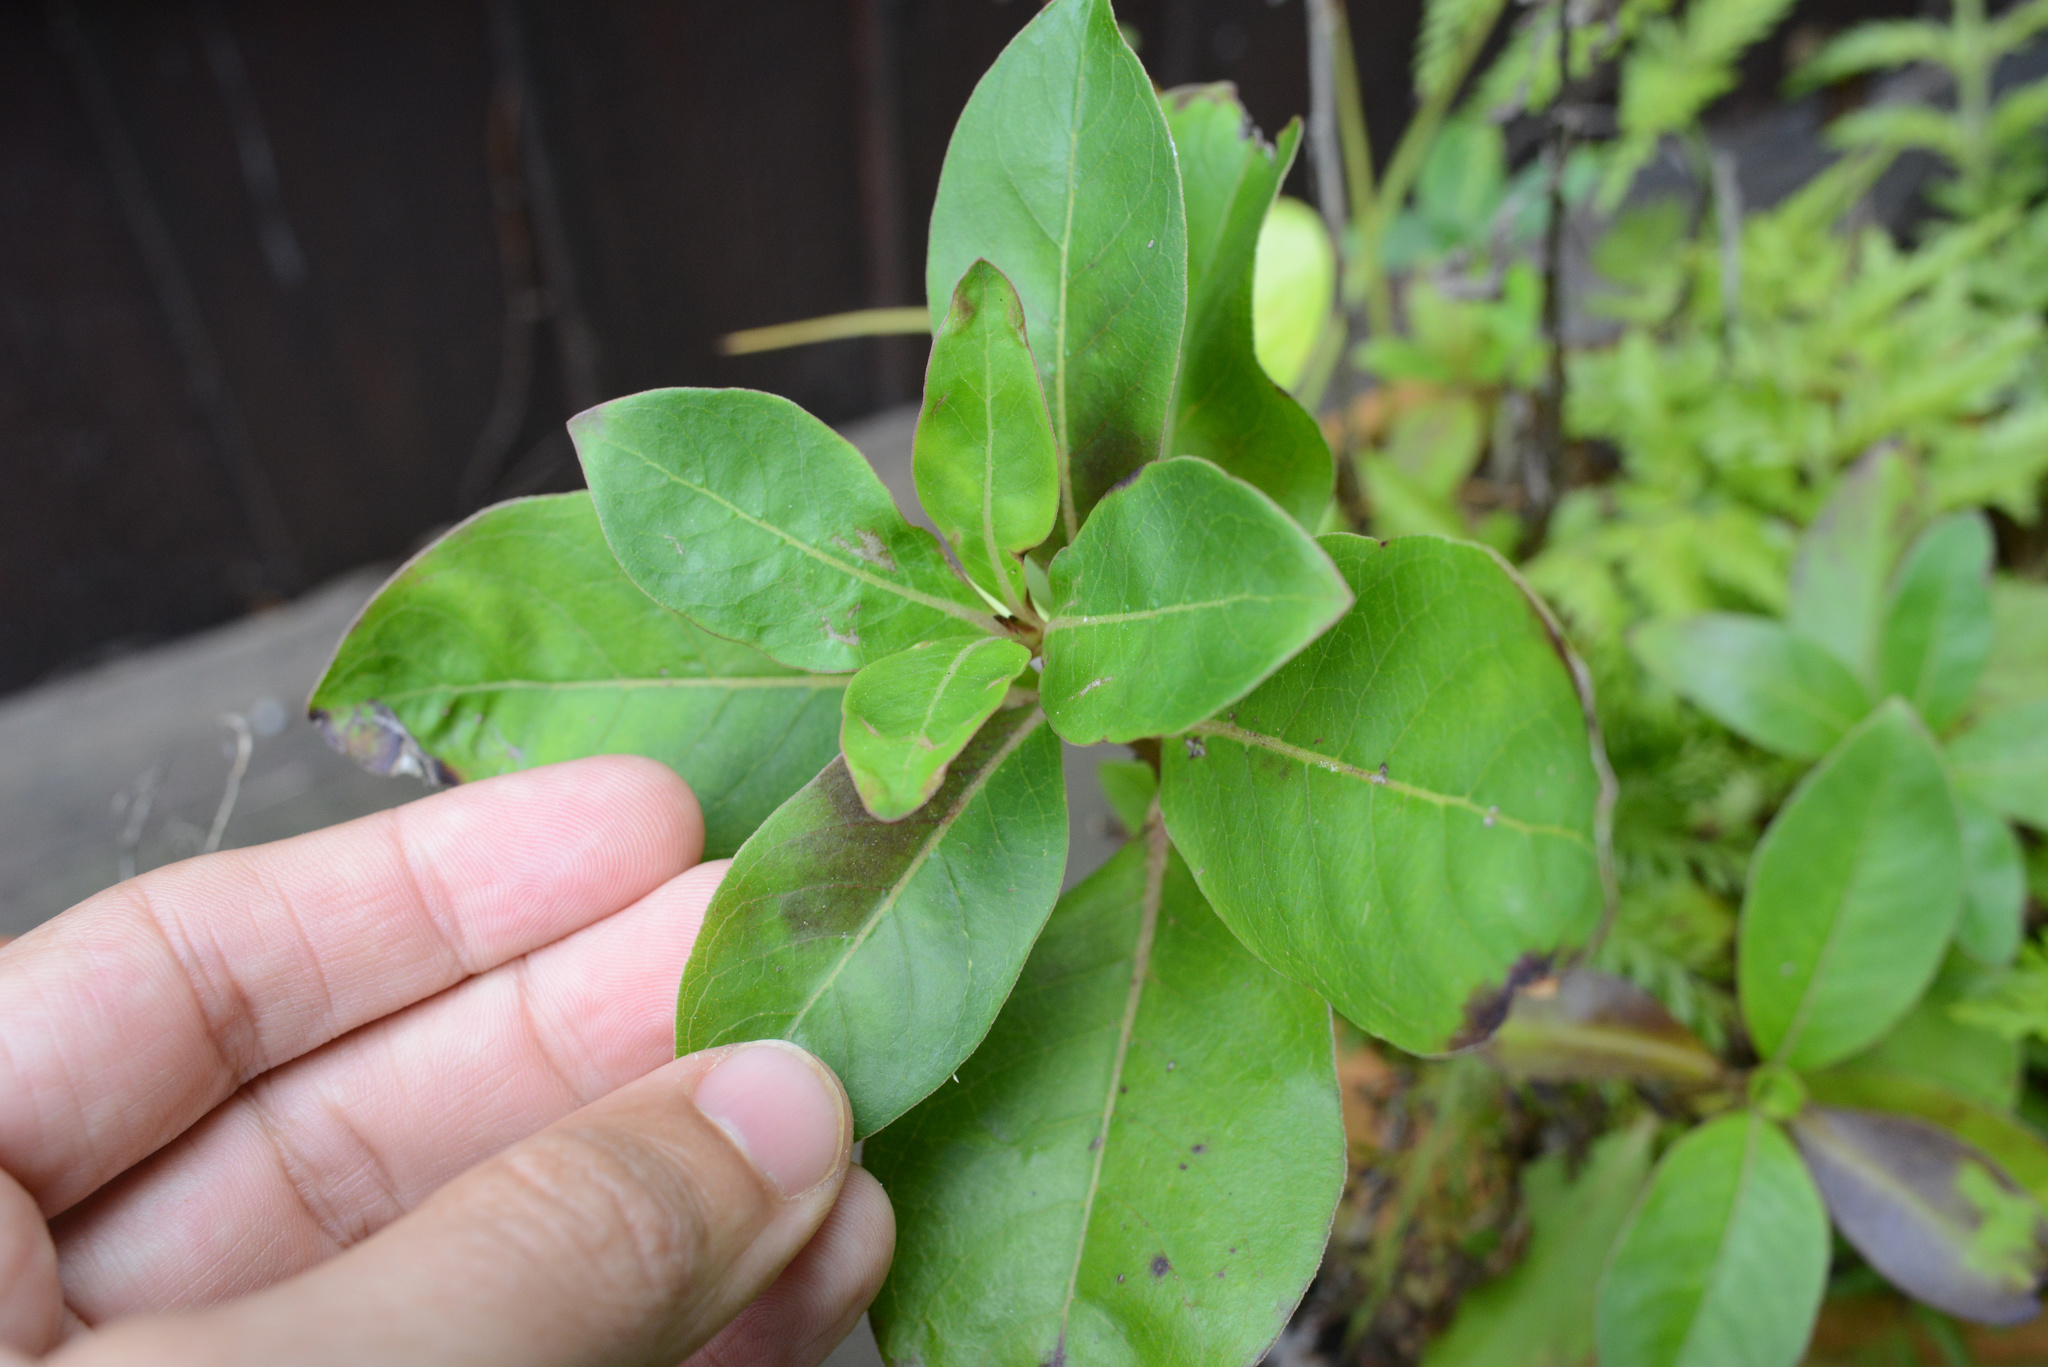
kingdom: Plantae
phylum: Tracheophyta
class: Magnoliopsida
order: Gentianales
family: Rubiaceae
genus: Coprosma
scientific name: Coprosma robusta
